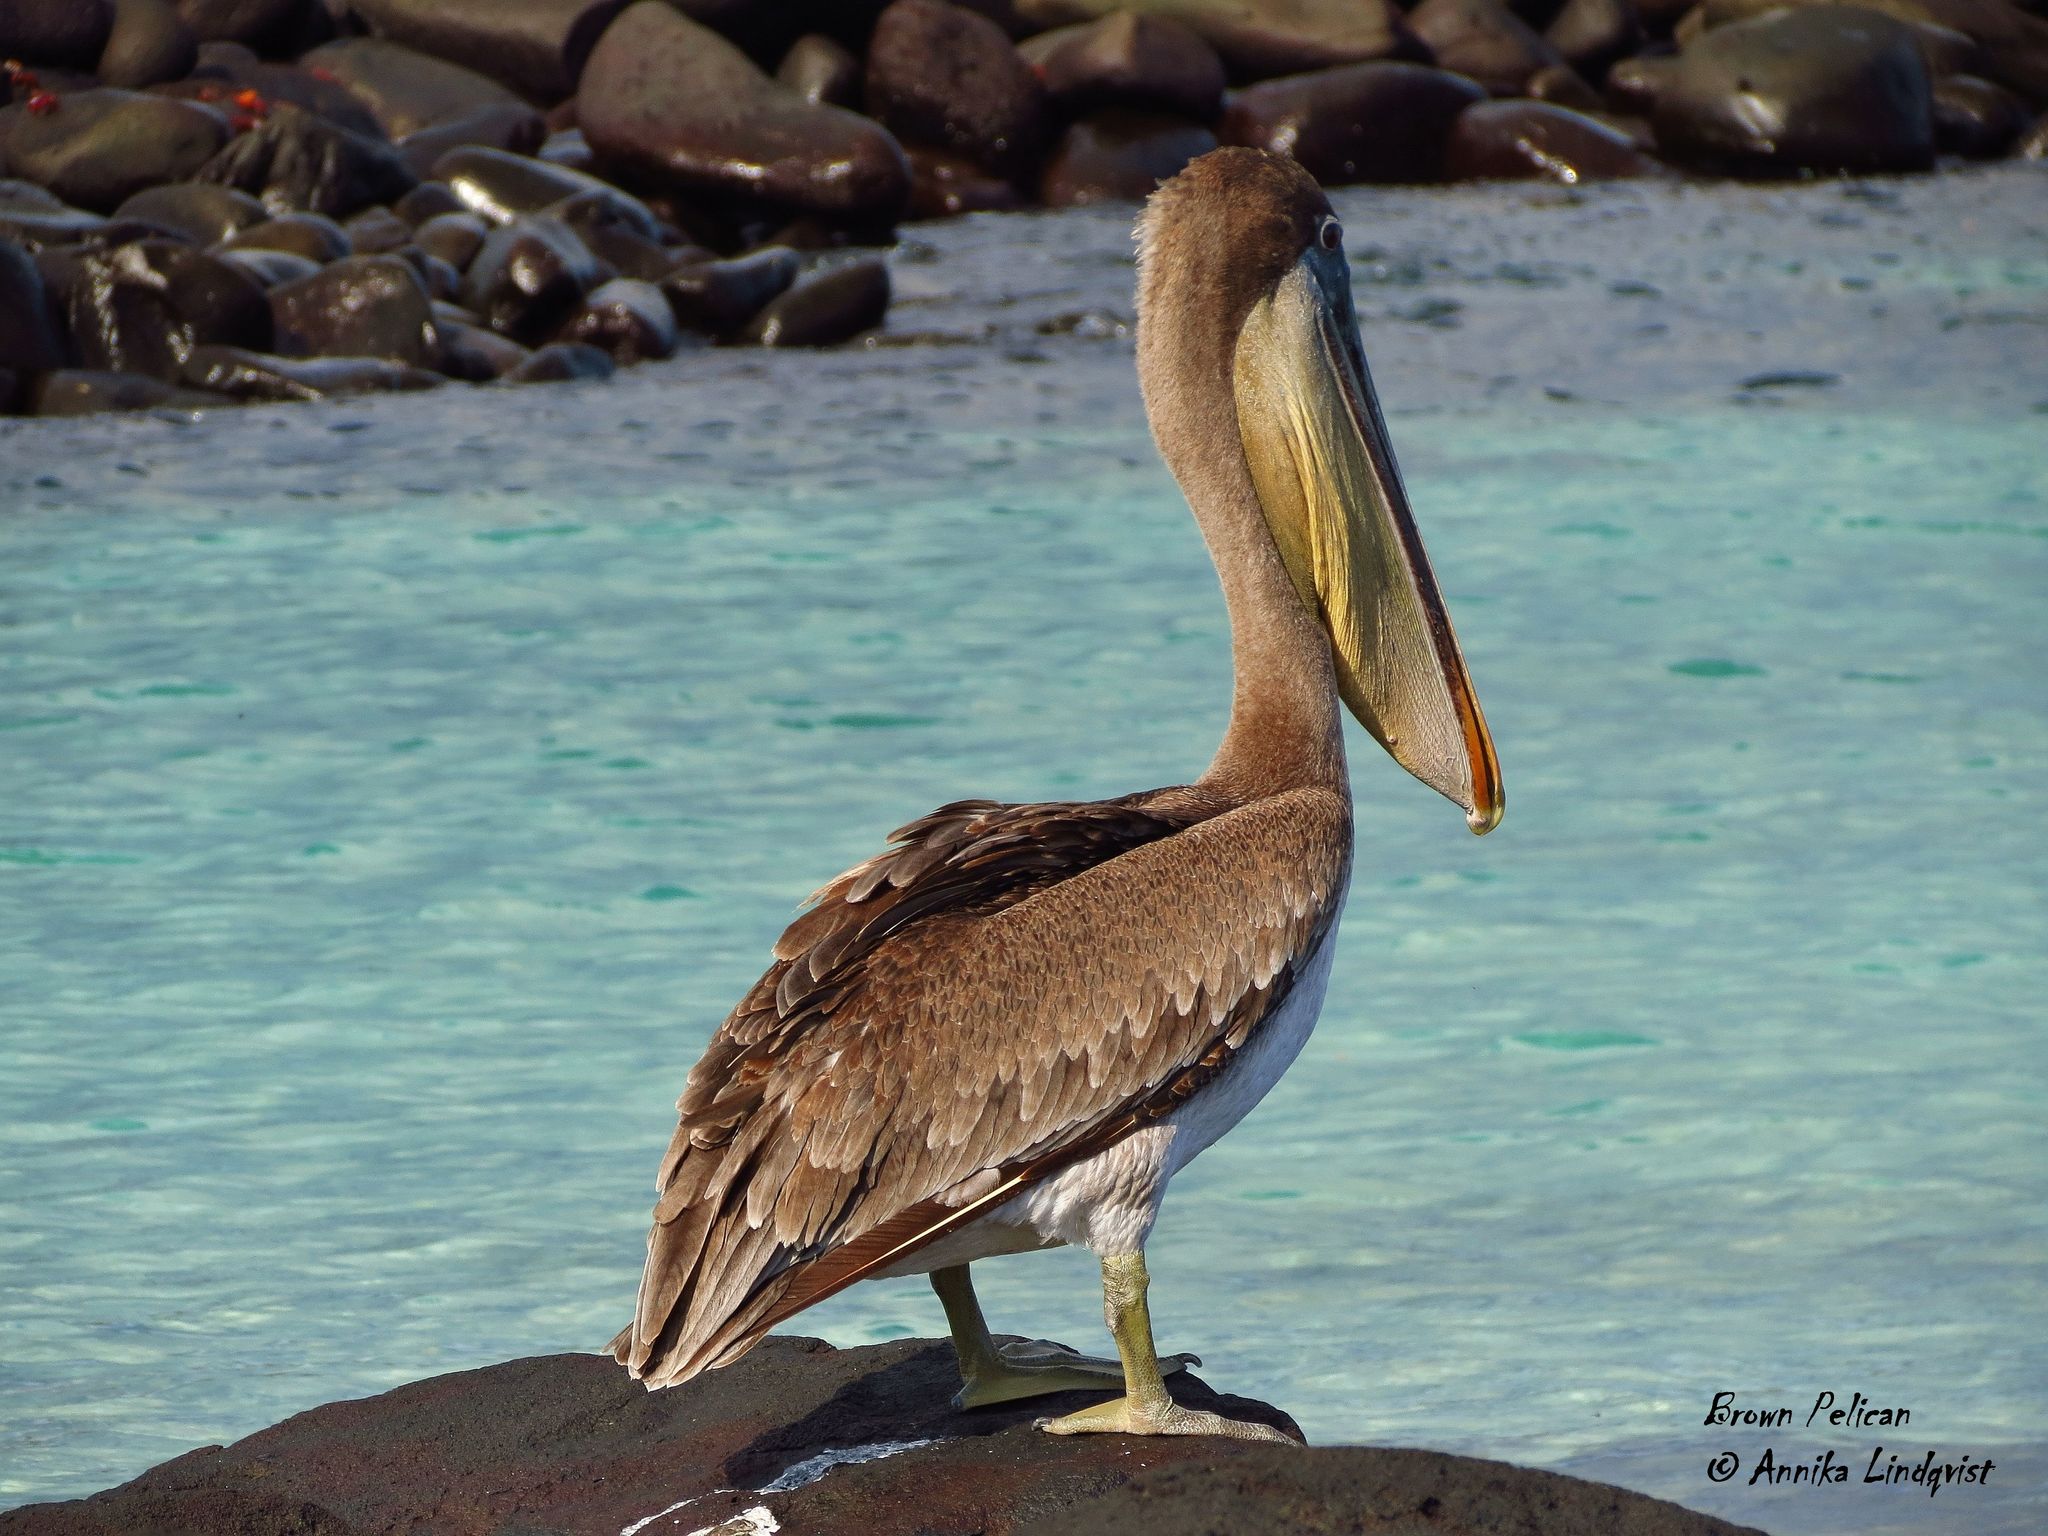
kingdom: Animalia
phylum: Chordata
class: Aves
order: Pelecaniformes
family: Pelecanidae
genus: Pelecanus
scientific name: Pelecanus occidentalis
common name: Brown pelican
